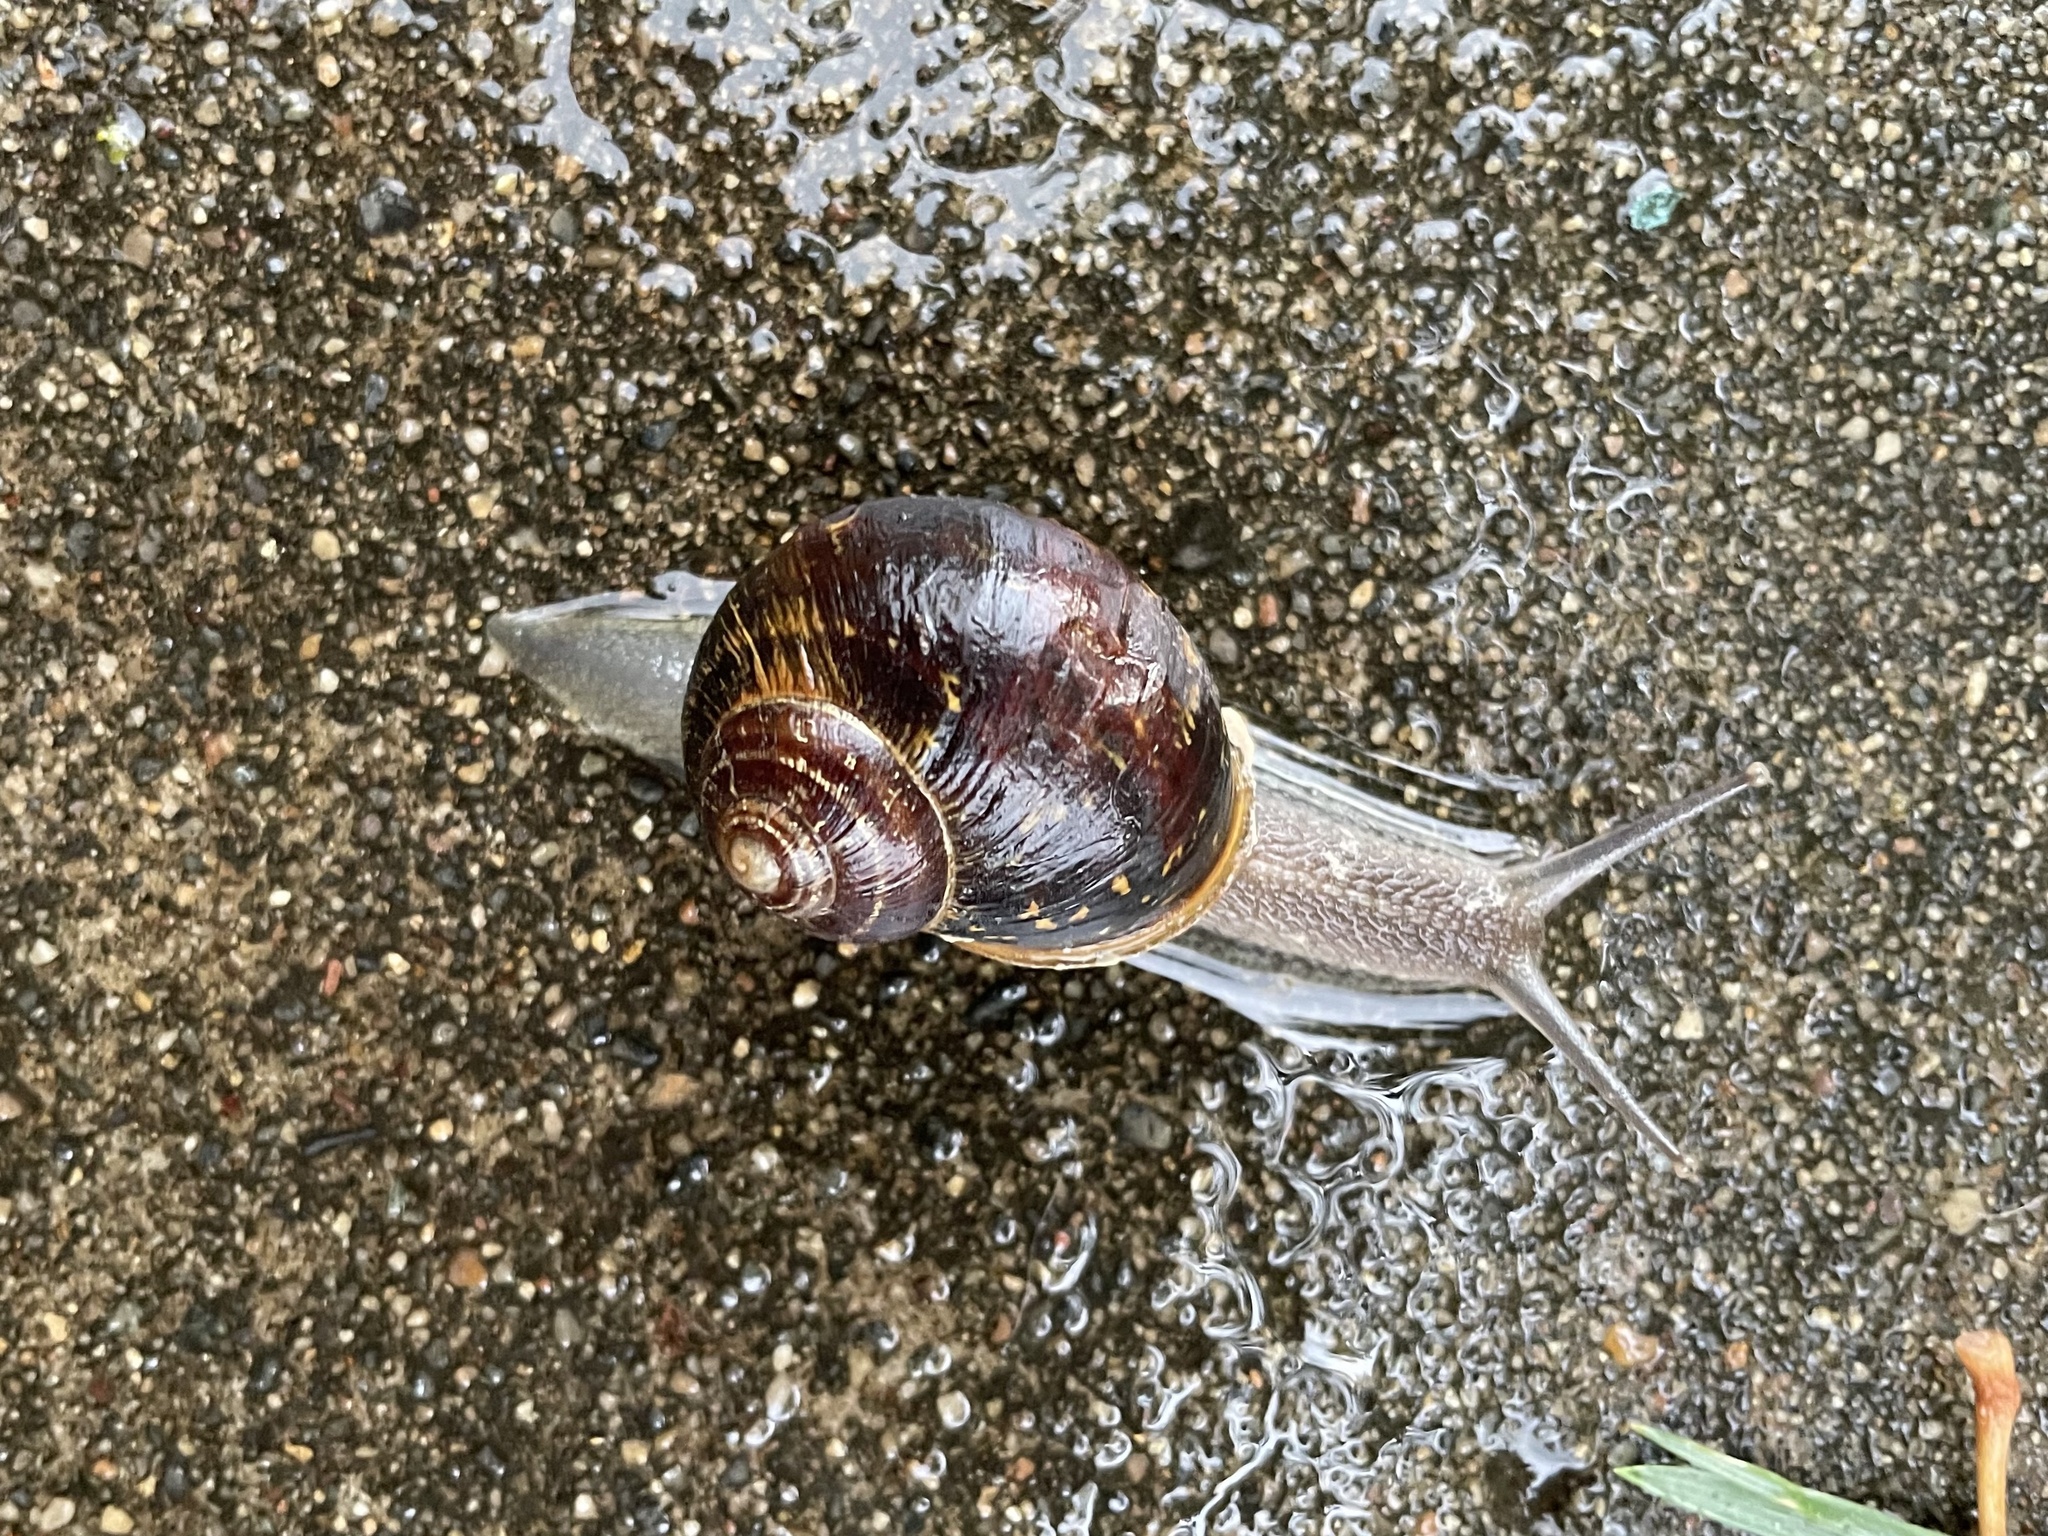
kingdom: Animalia
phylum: Mollusca
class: Gastropoda
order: Stylommatophora
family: Helicidae
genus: Cornu
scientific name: Cornu aspersum
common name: Brown garden snail
